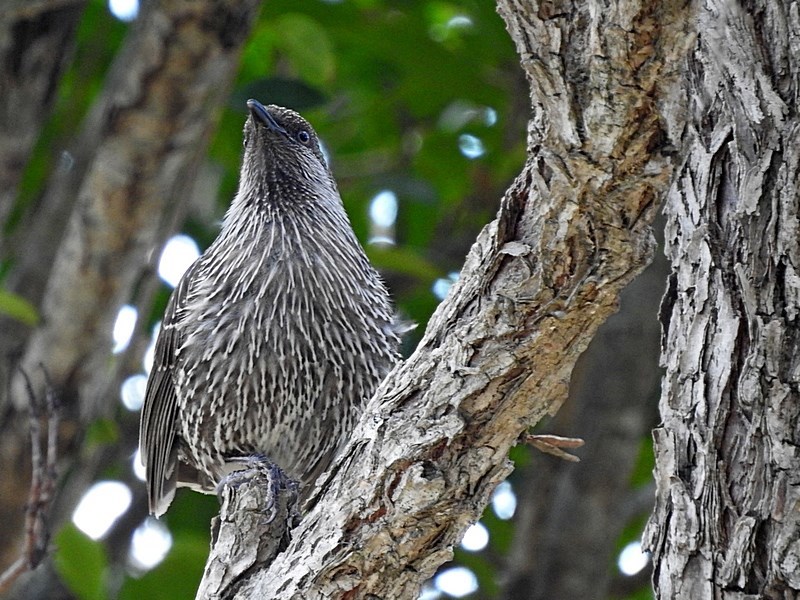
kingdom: Animalia
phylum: Chordata
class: Aves
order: Passeriformes
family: Meliphagidae
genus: Anthochaera
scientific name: Anthochaera chrysoptera
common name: Little wattlebird
